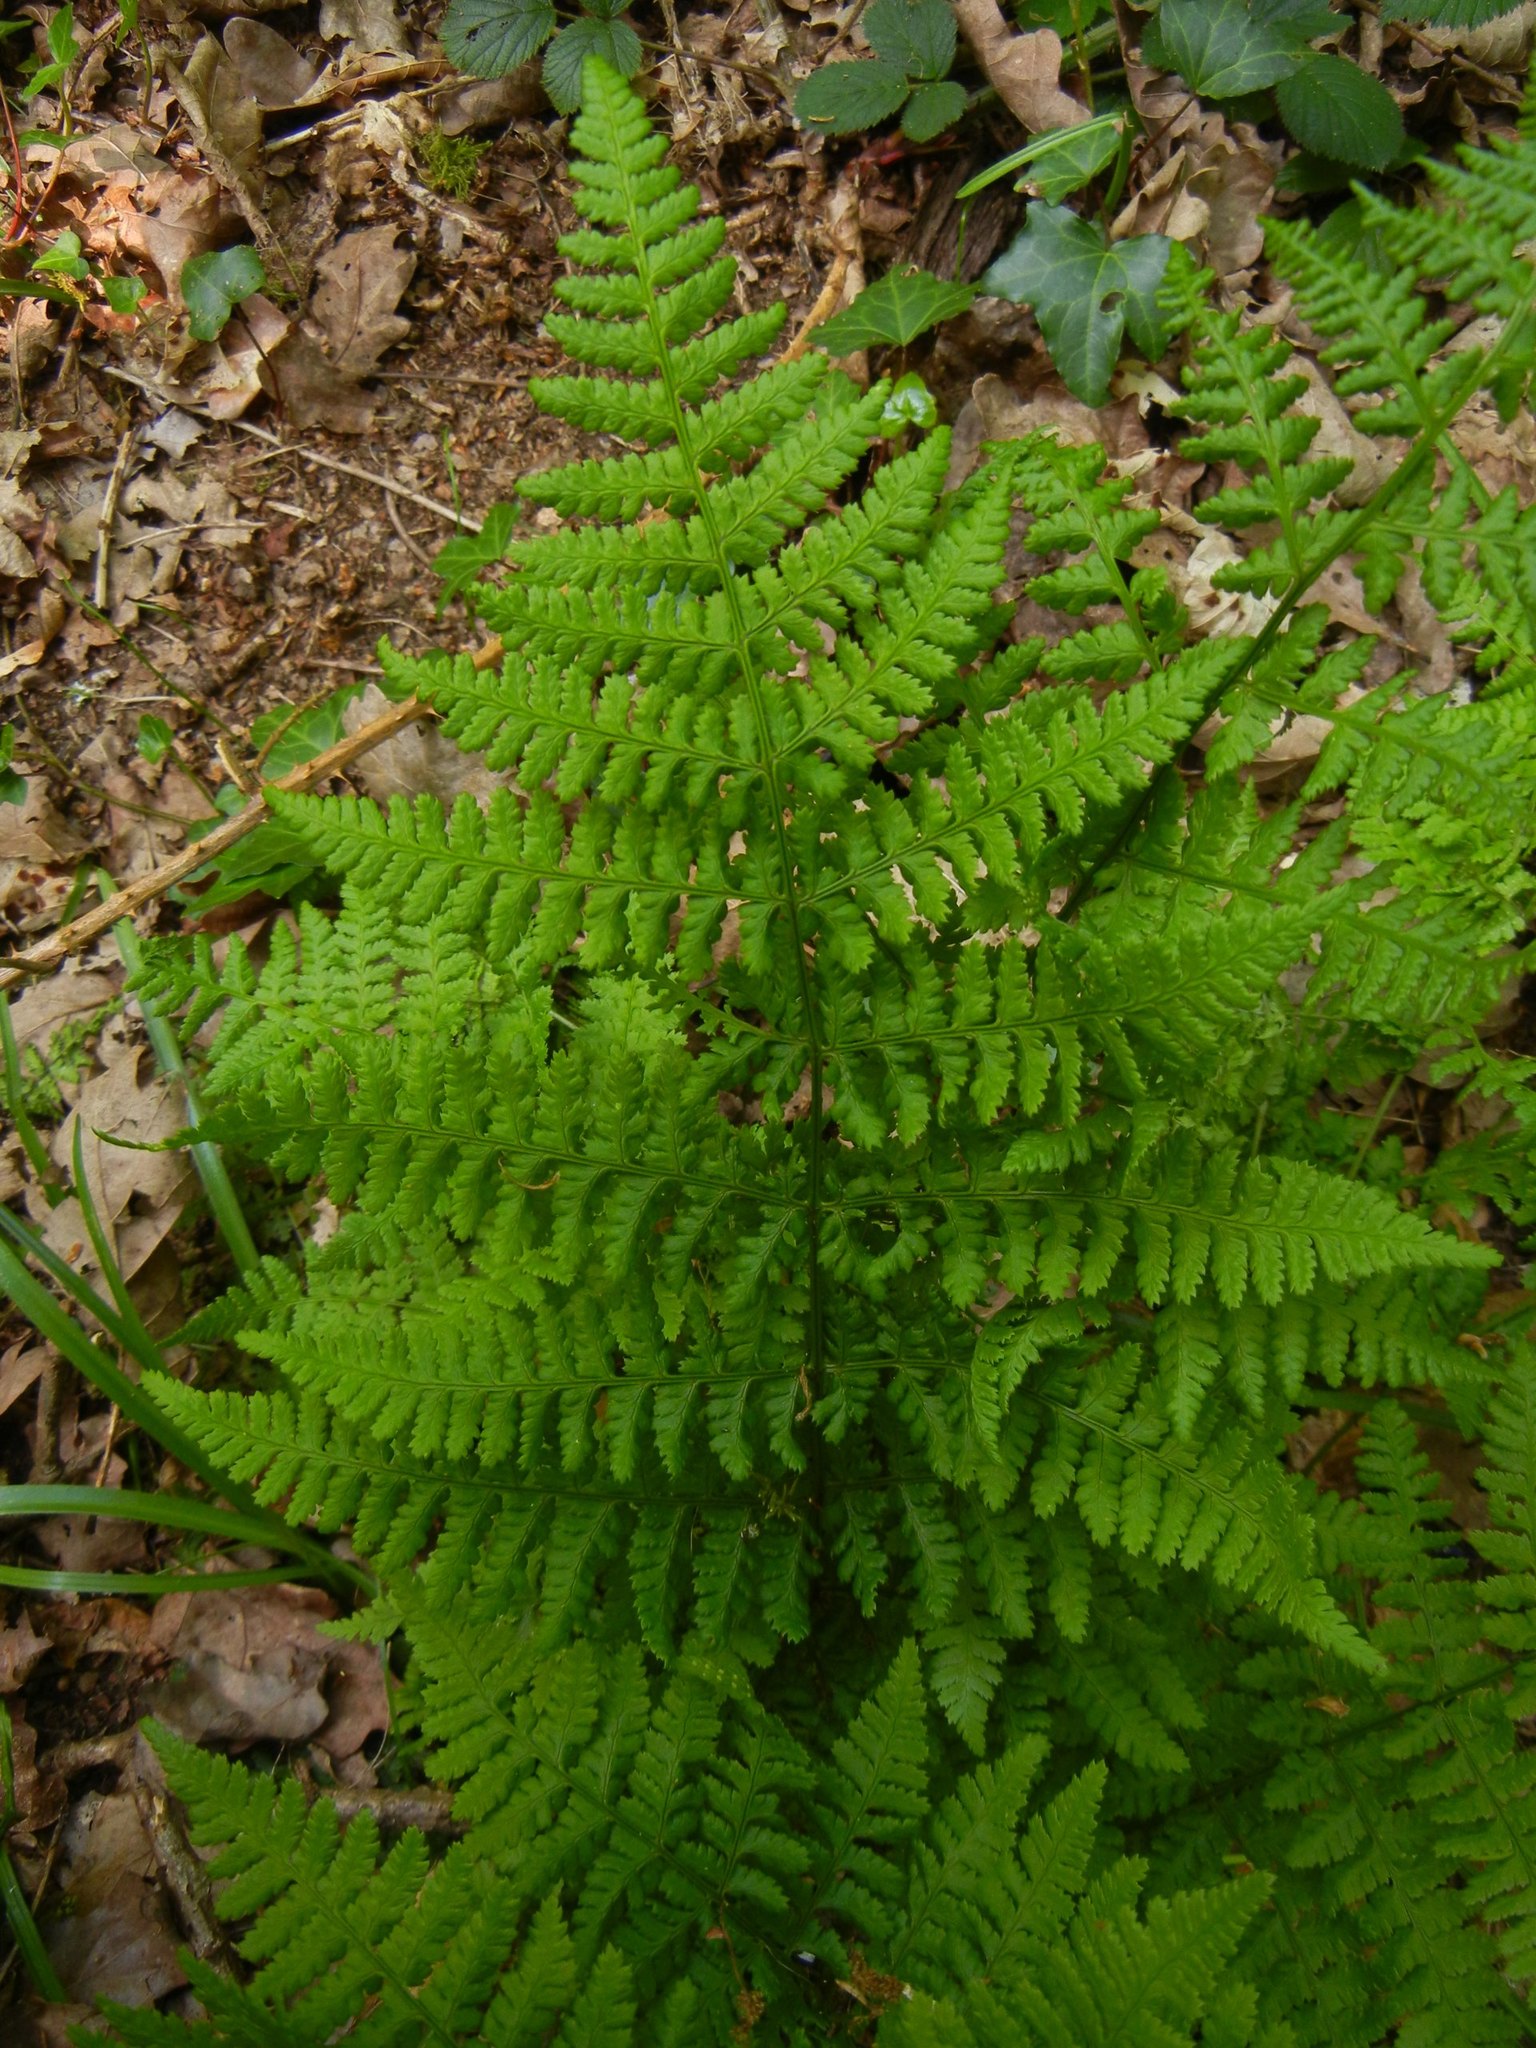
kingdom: Plantae
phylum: Tracheophyta
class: Polypodiopsida
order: Polypodiales
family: Dryopteridaceae
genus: Dryopteris
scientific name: Dryopteris dilatata
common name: Broad buckler-fern
